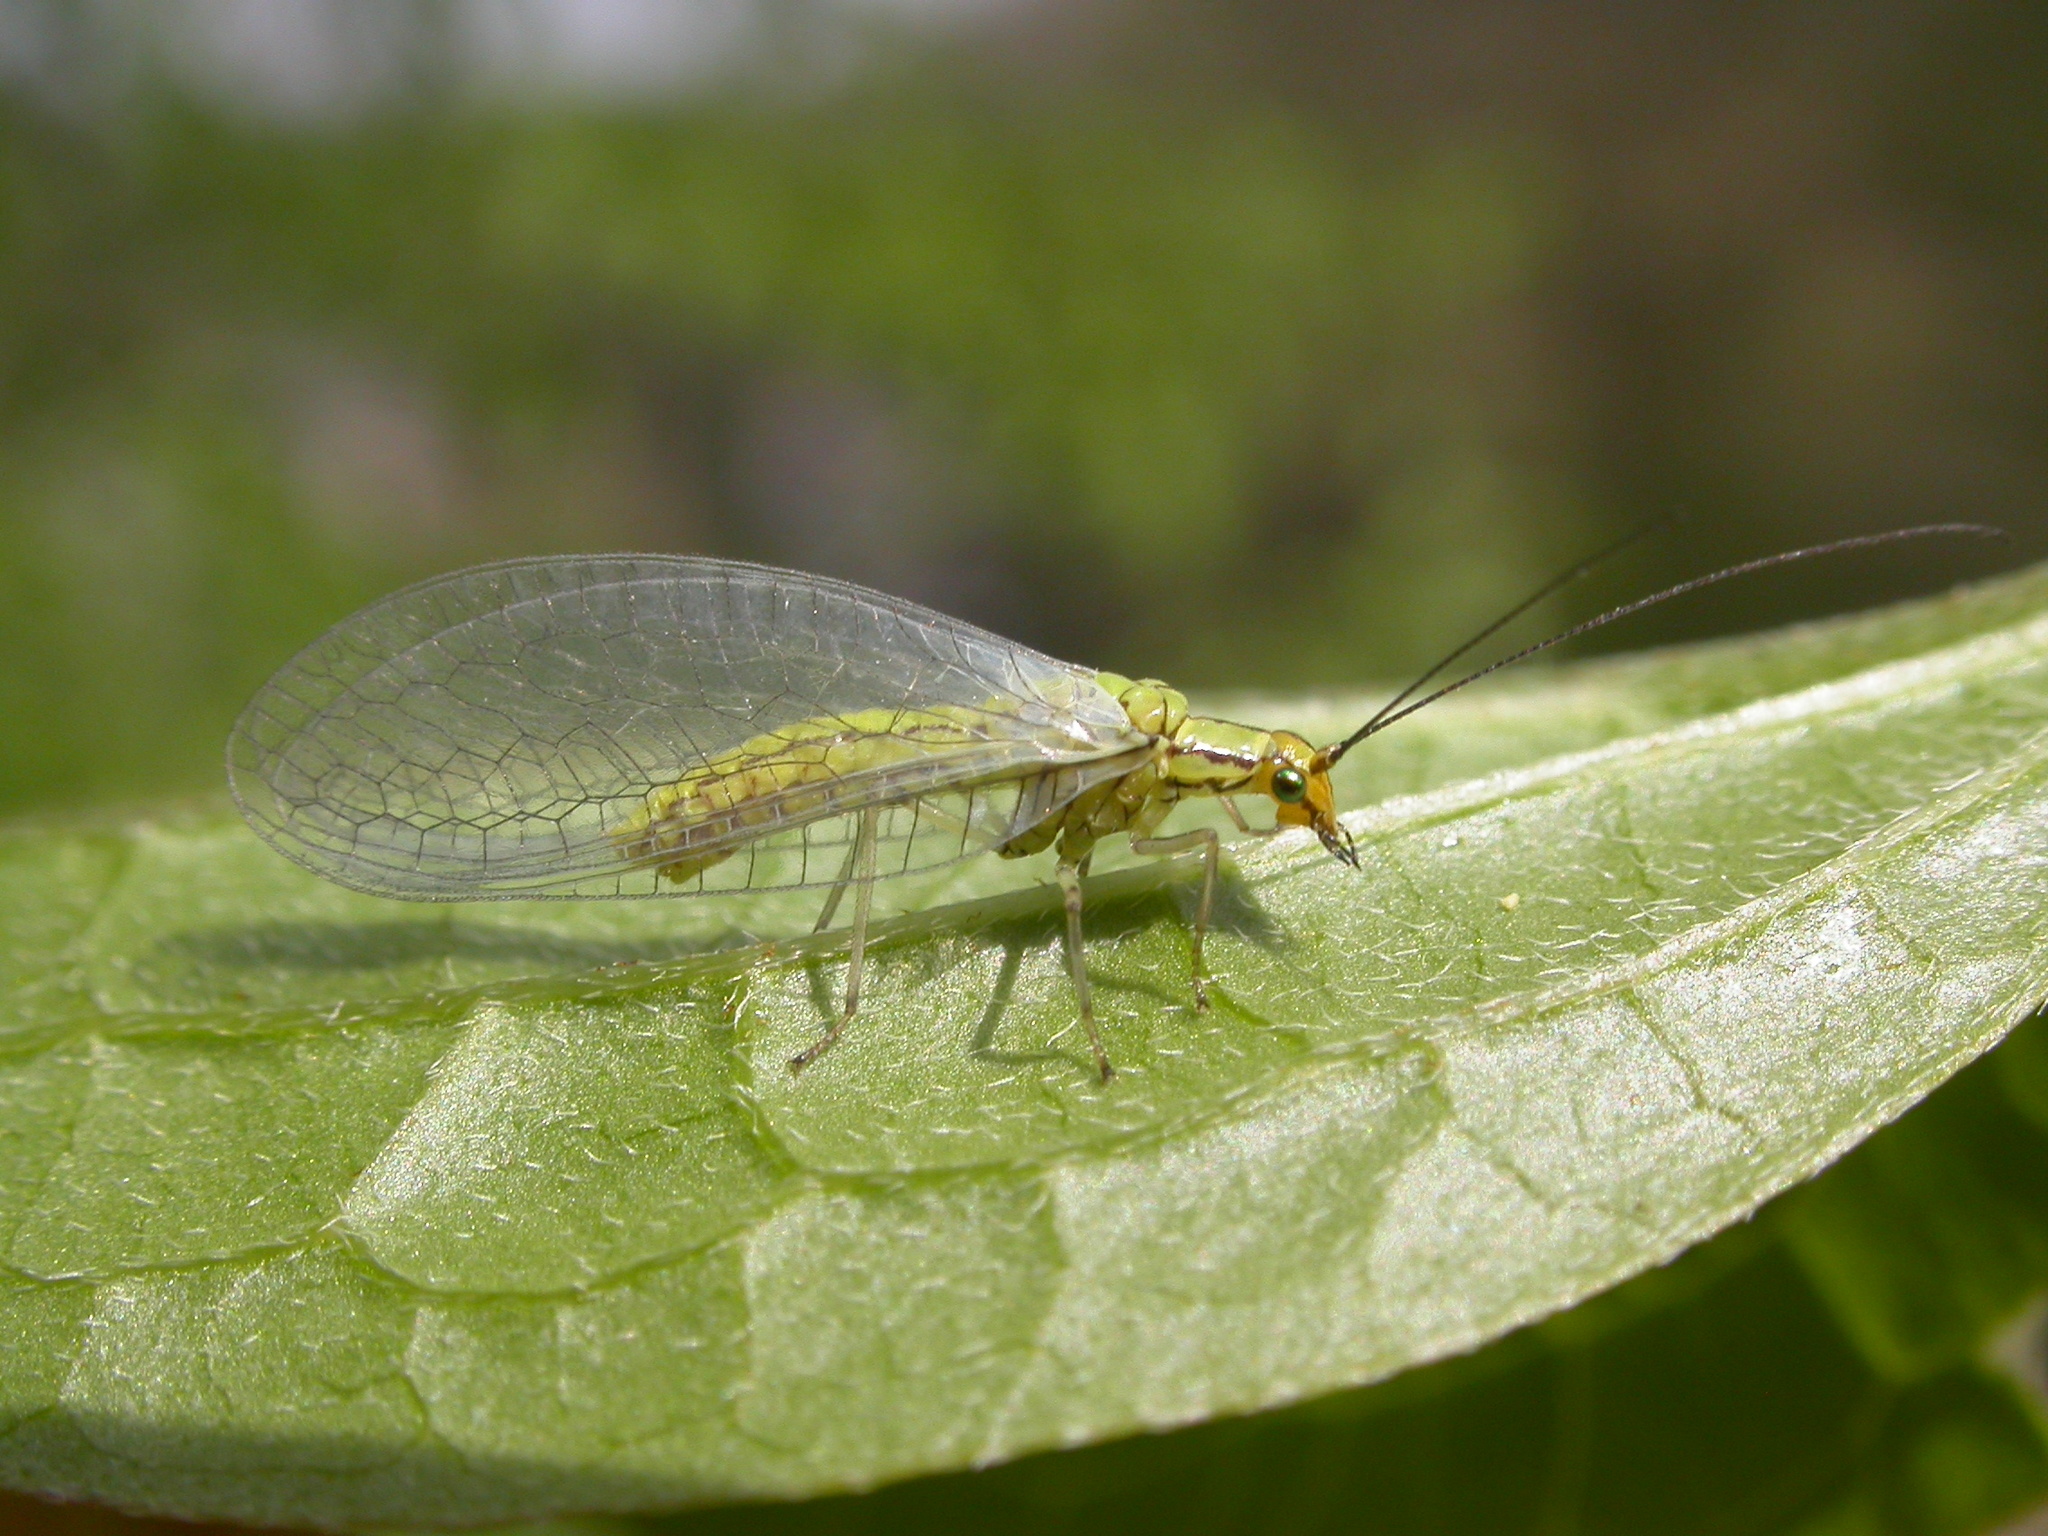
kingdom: Animalia
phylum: Arthropoda
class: Insecta
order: Neuroptera
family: Chrysopidae
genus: Hypochrysa
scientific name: Hypochrysa elegans
